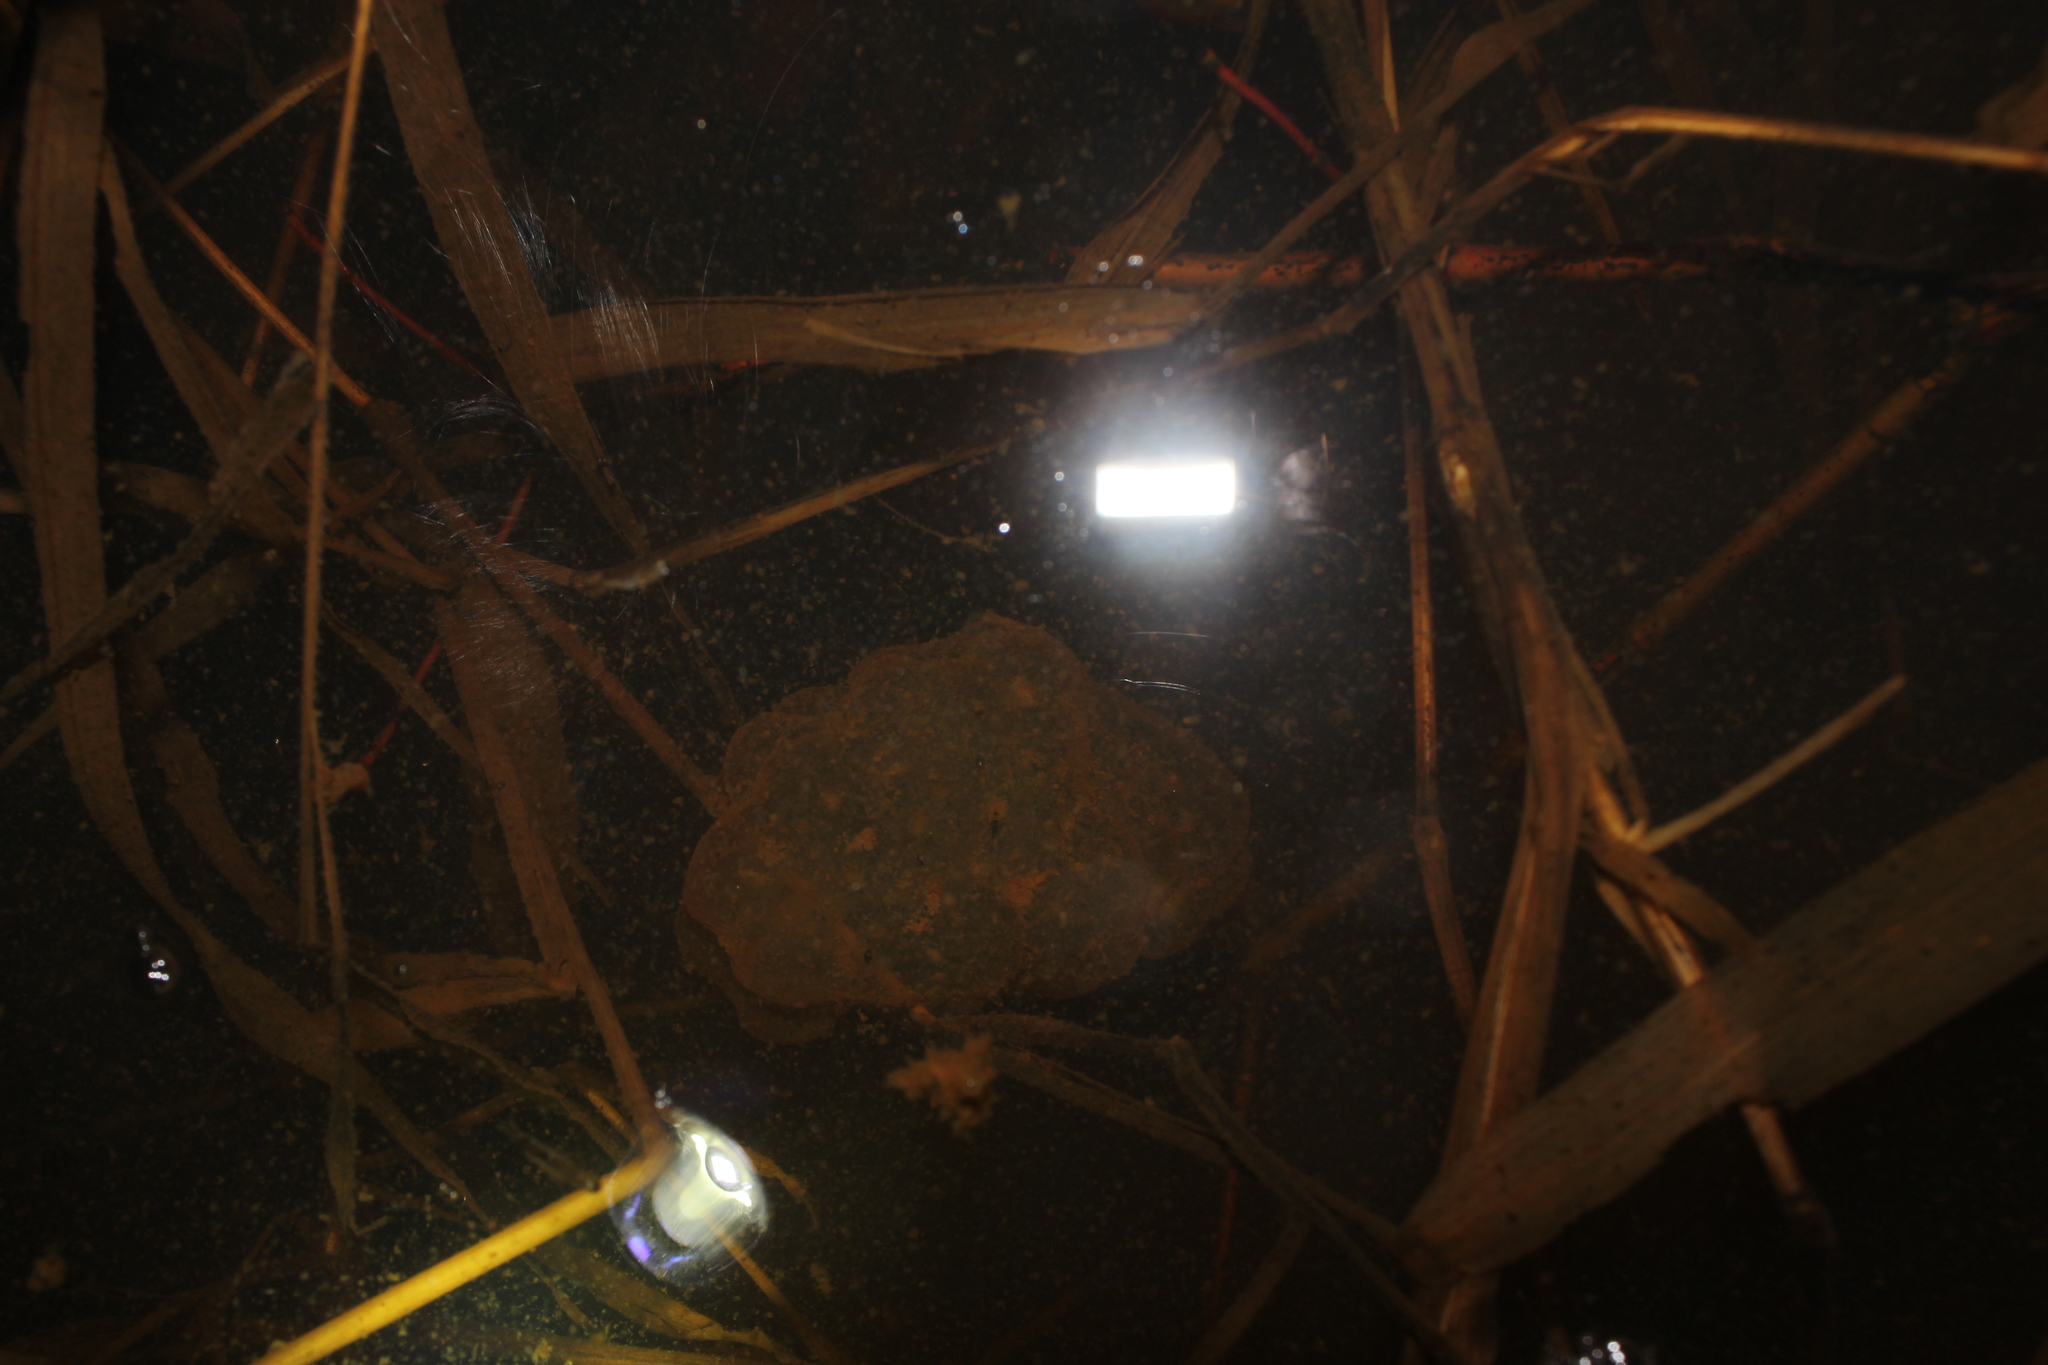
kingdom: Animalia
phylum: Chordata
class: Amphibia
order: Caudata
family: Ambystomatidae
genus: Ambystoma
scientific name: Ambystoma maculatum
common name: Spotted salamander
